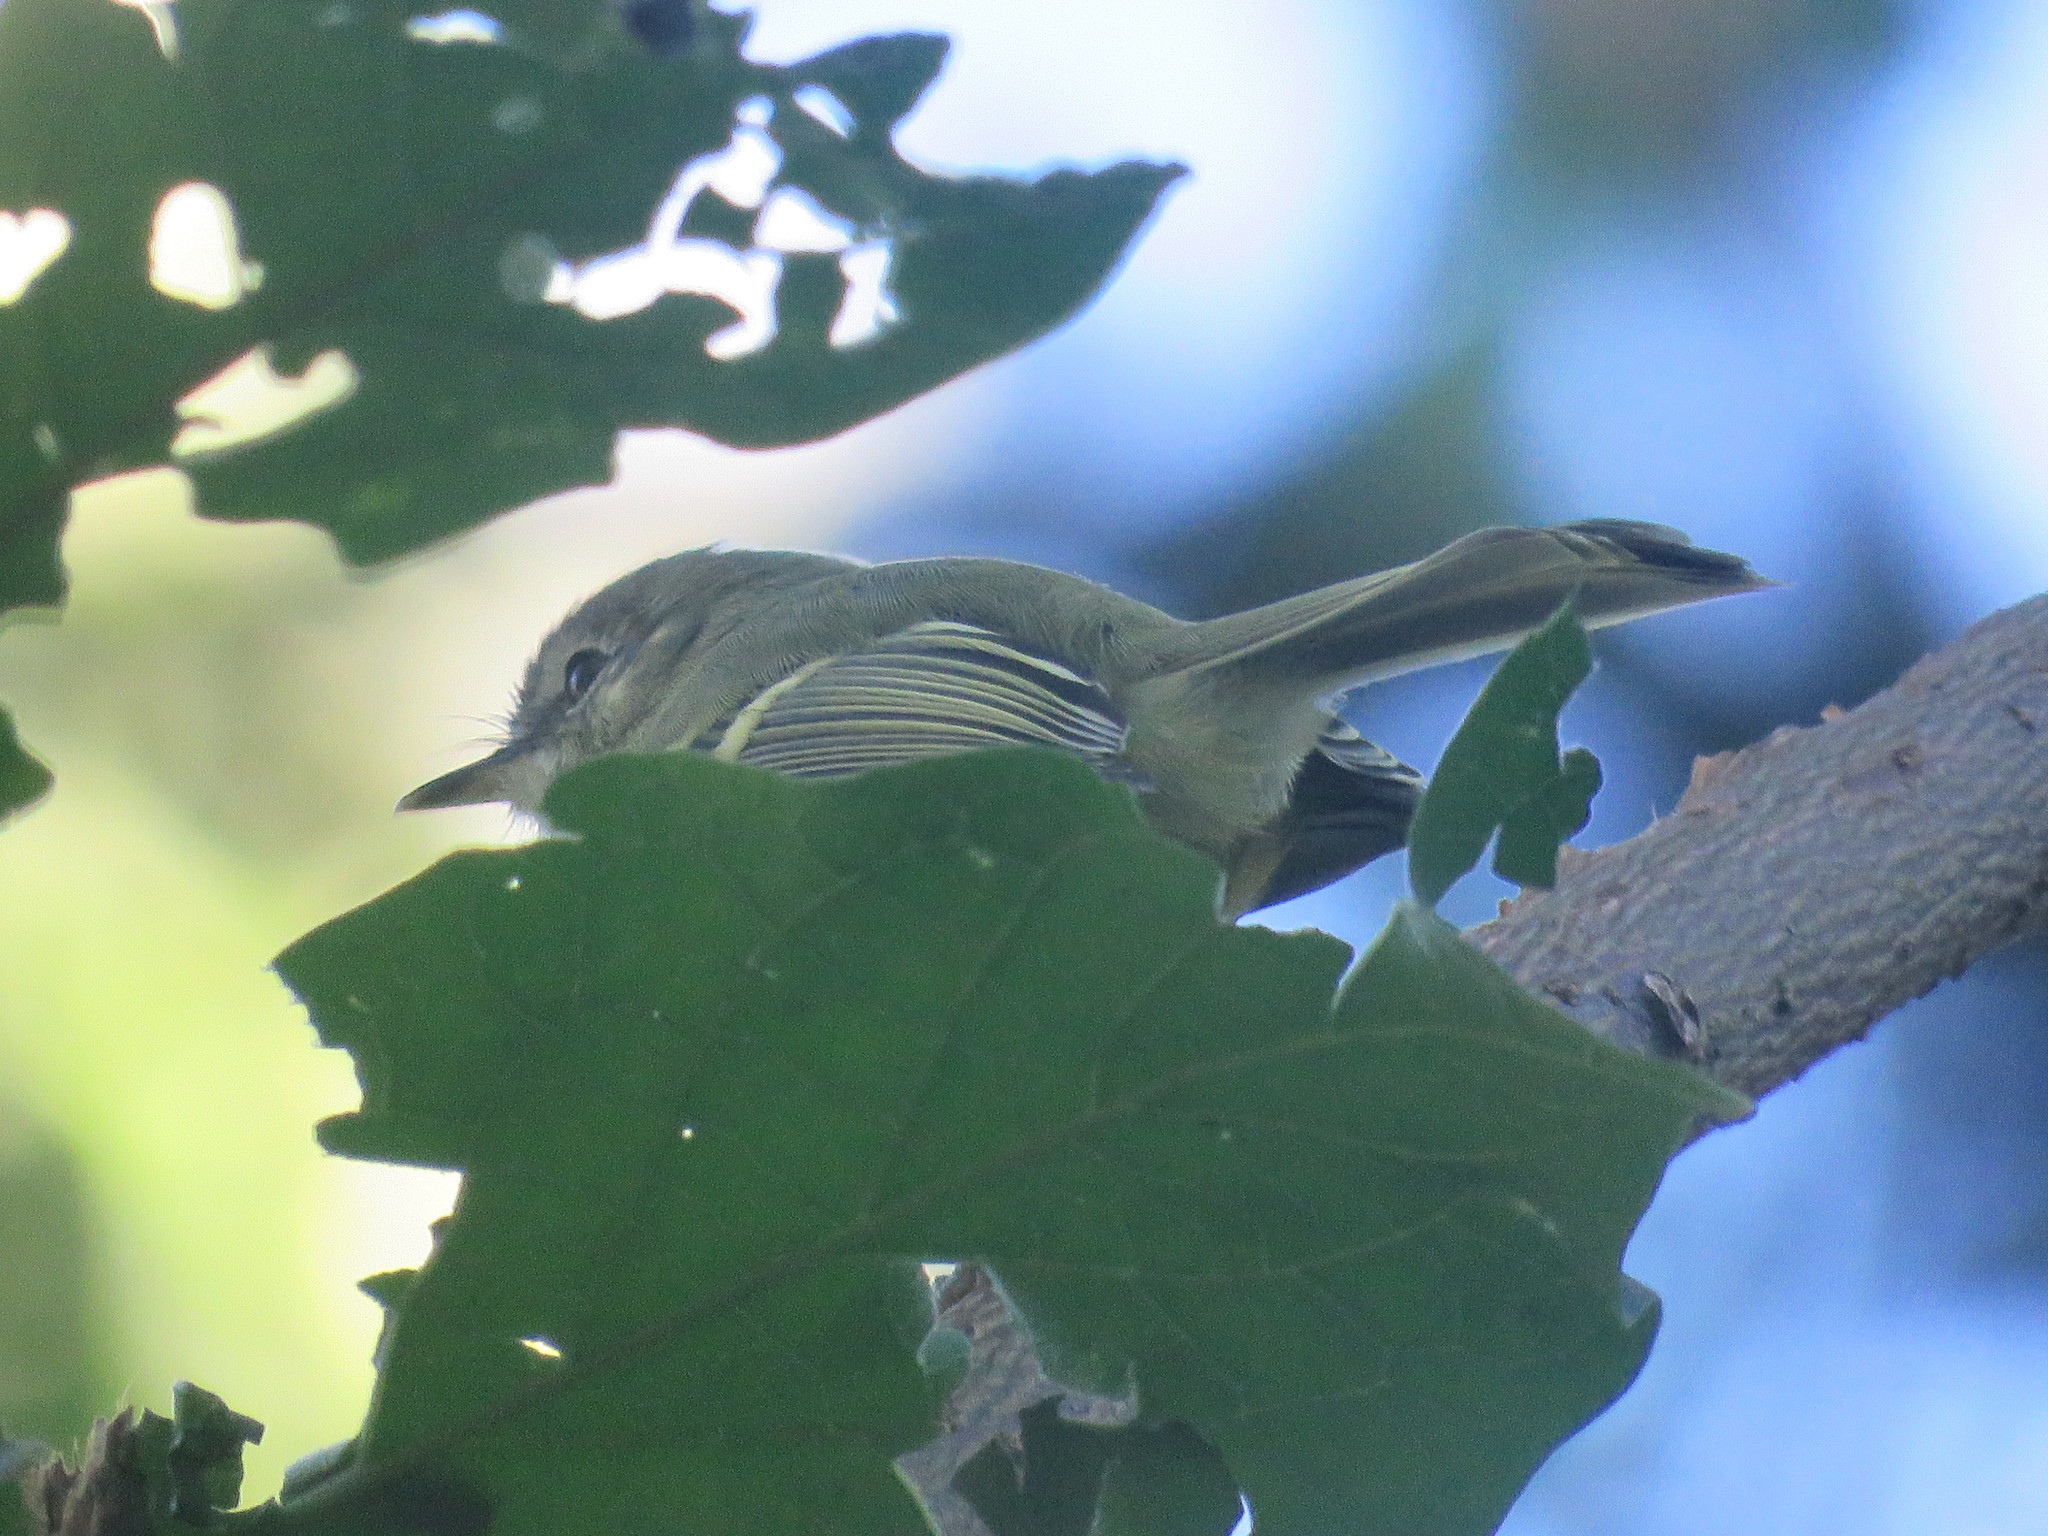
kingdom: Animalia
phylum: Chordata
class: Aves
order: Passeriformes
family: Tyrannidae
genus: Phylloscartes
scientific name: Phylloscartes ventralis
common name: Mottle-cheeked tyrannulet
